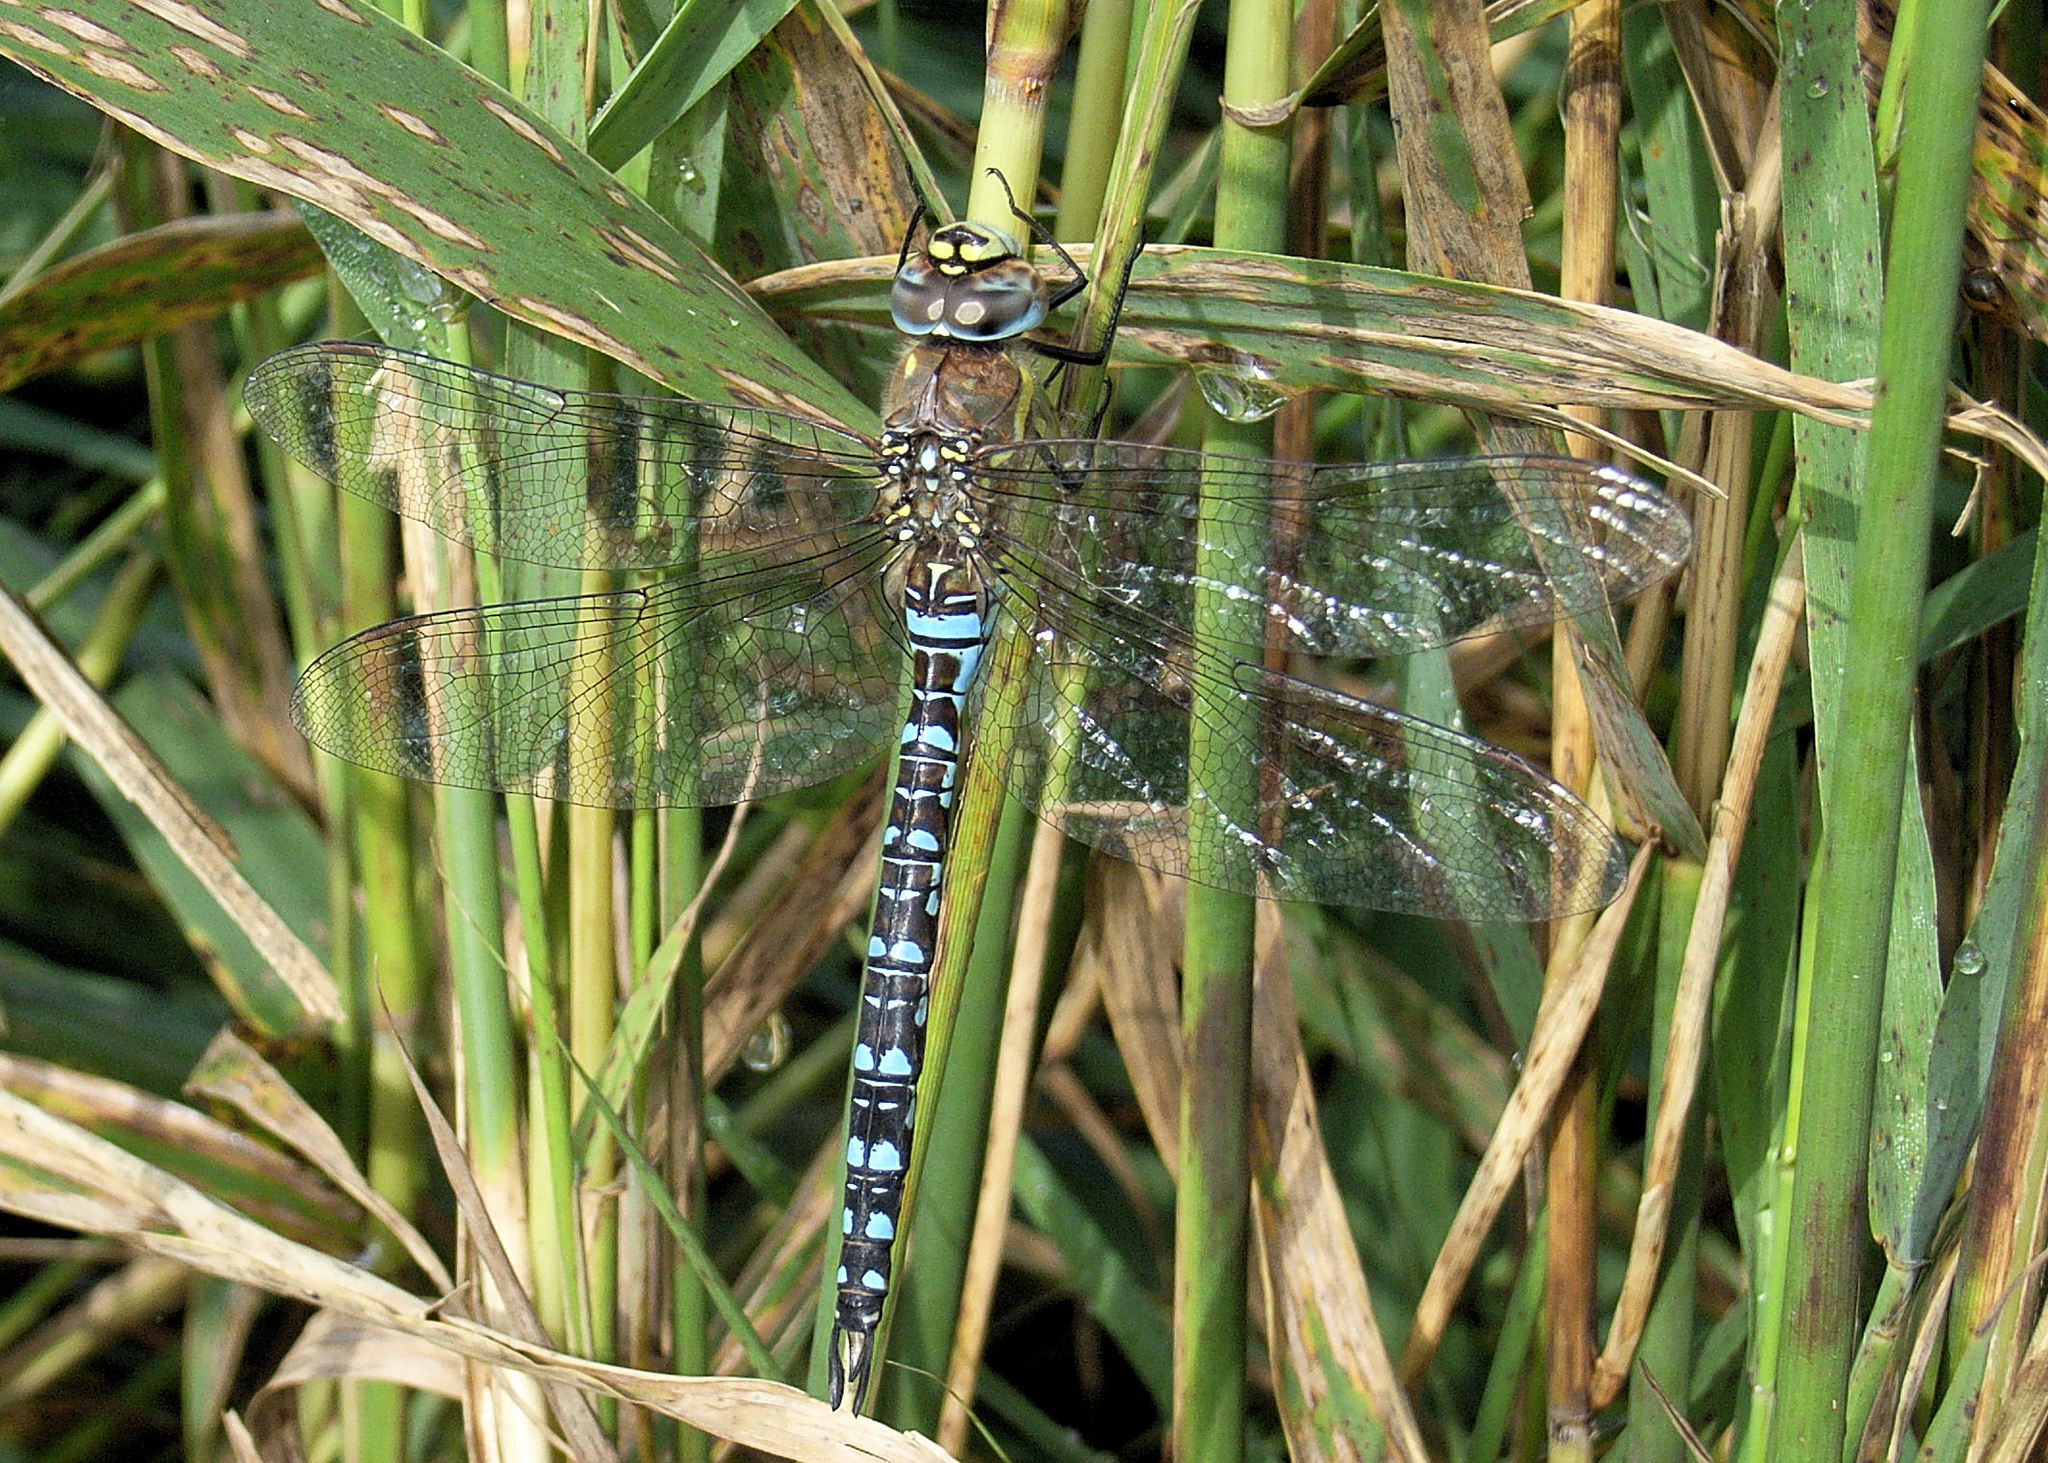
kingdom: Animalia
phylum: Arthropoda
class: Insecta
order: Odonata
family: Aeshnidae
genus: Aeshna
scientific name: Aeshna mixta
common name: Migrant hawker
